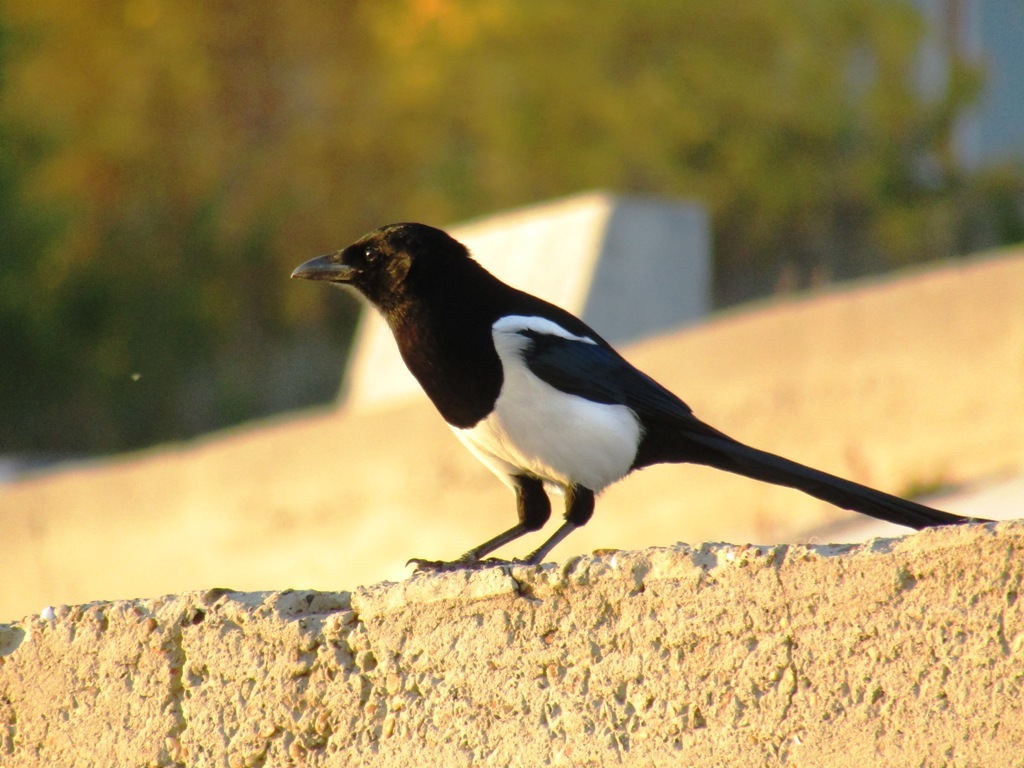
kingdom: Animalia
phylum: Chordata
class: Aves
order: Passeriformes
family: Corvidae
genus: Pica
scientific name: Pica pica
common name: Eurasian magpie
